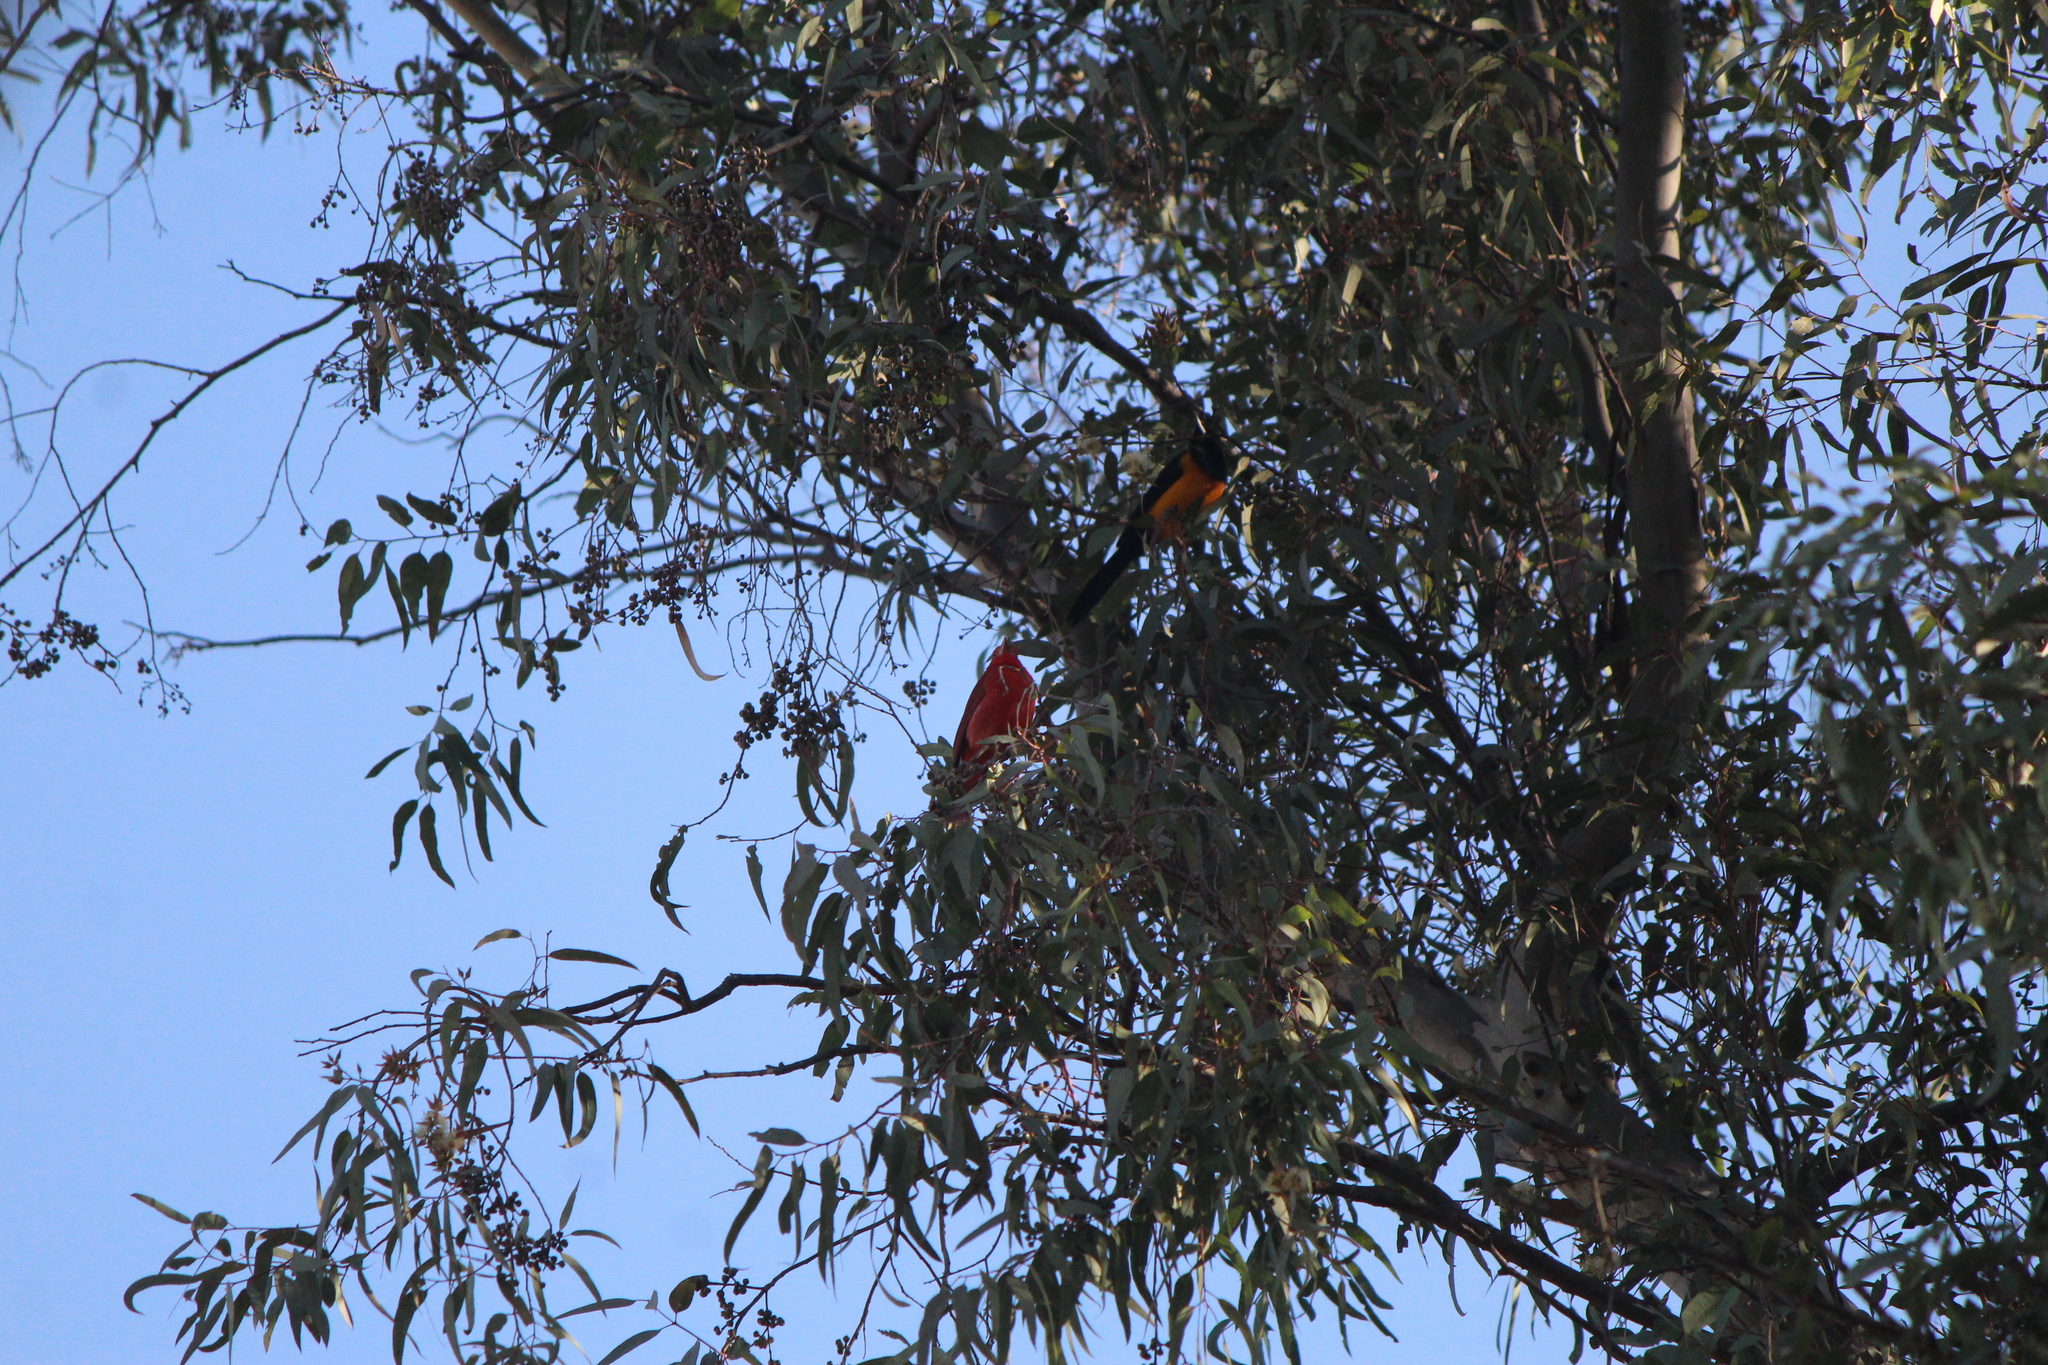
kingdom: Animalia
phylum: Chordata
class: Aves
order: Passeriformes
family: Icteridae
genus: Icterus
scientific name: Icterus wagleri
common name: Black-vented oriole
